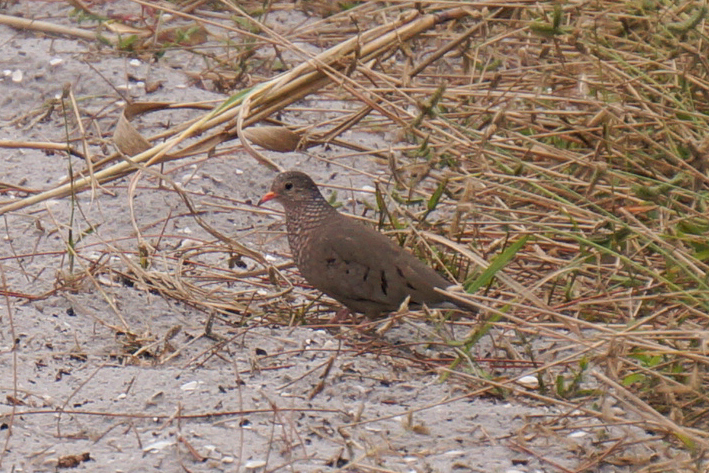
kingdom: Animalia
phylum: Chordata
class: Aves
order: Columbiformes
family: Columbidae
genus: Columbina
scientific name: Columbina passerina
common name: Common ground-dove
